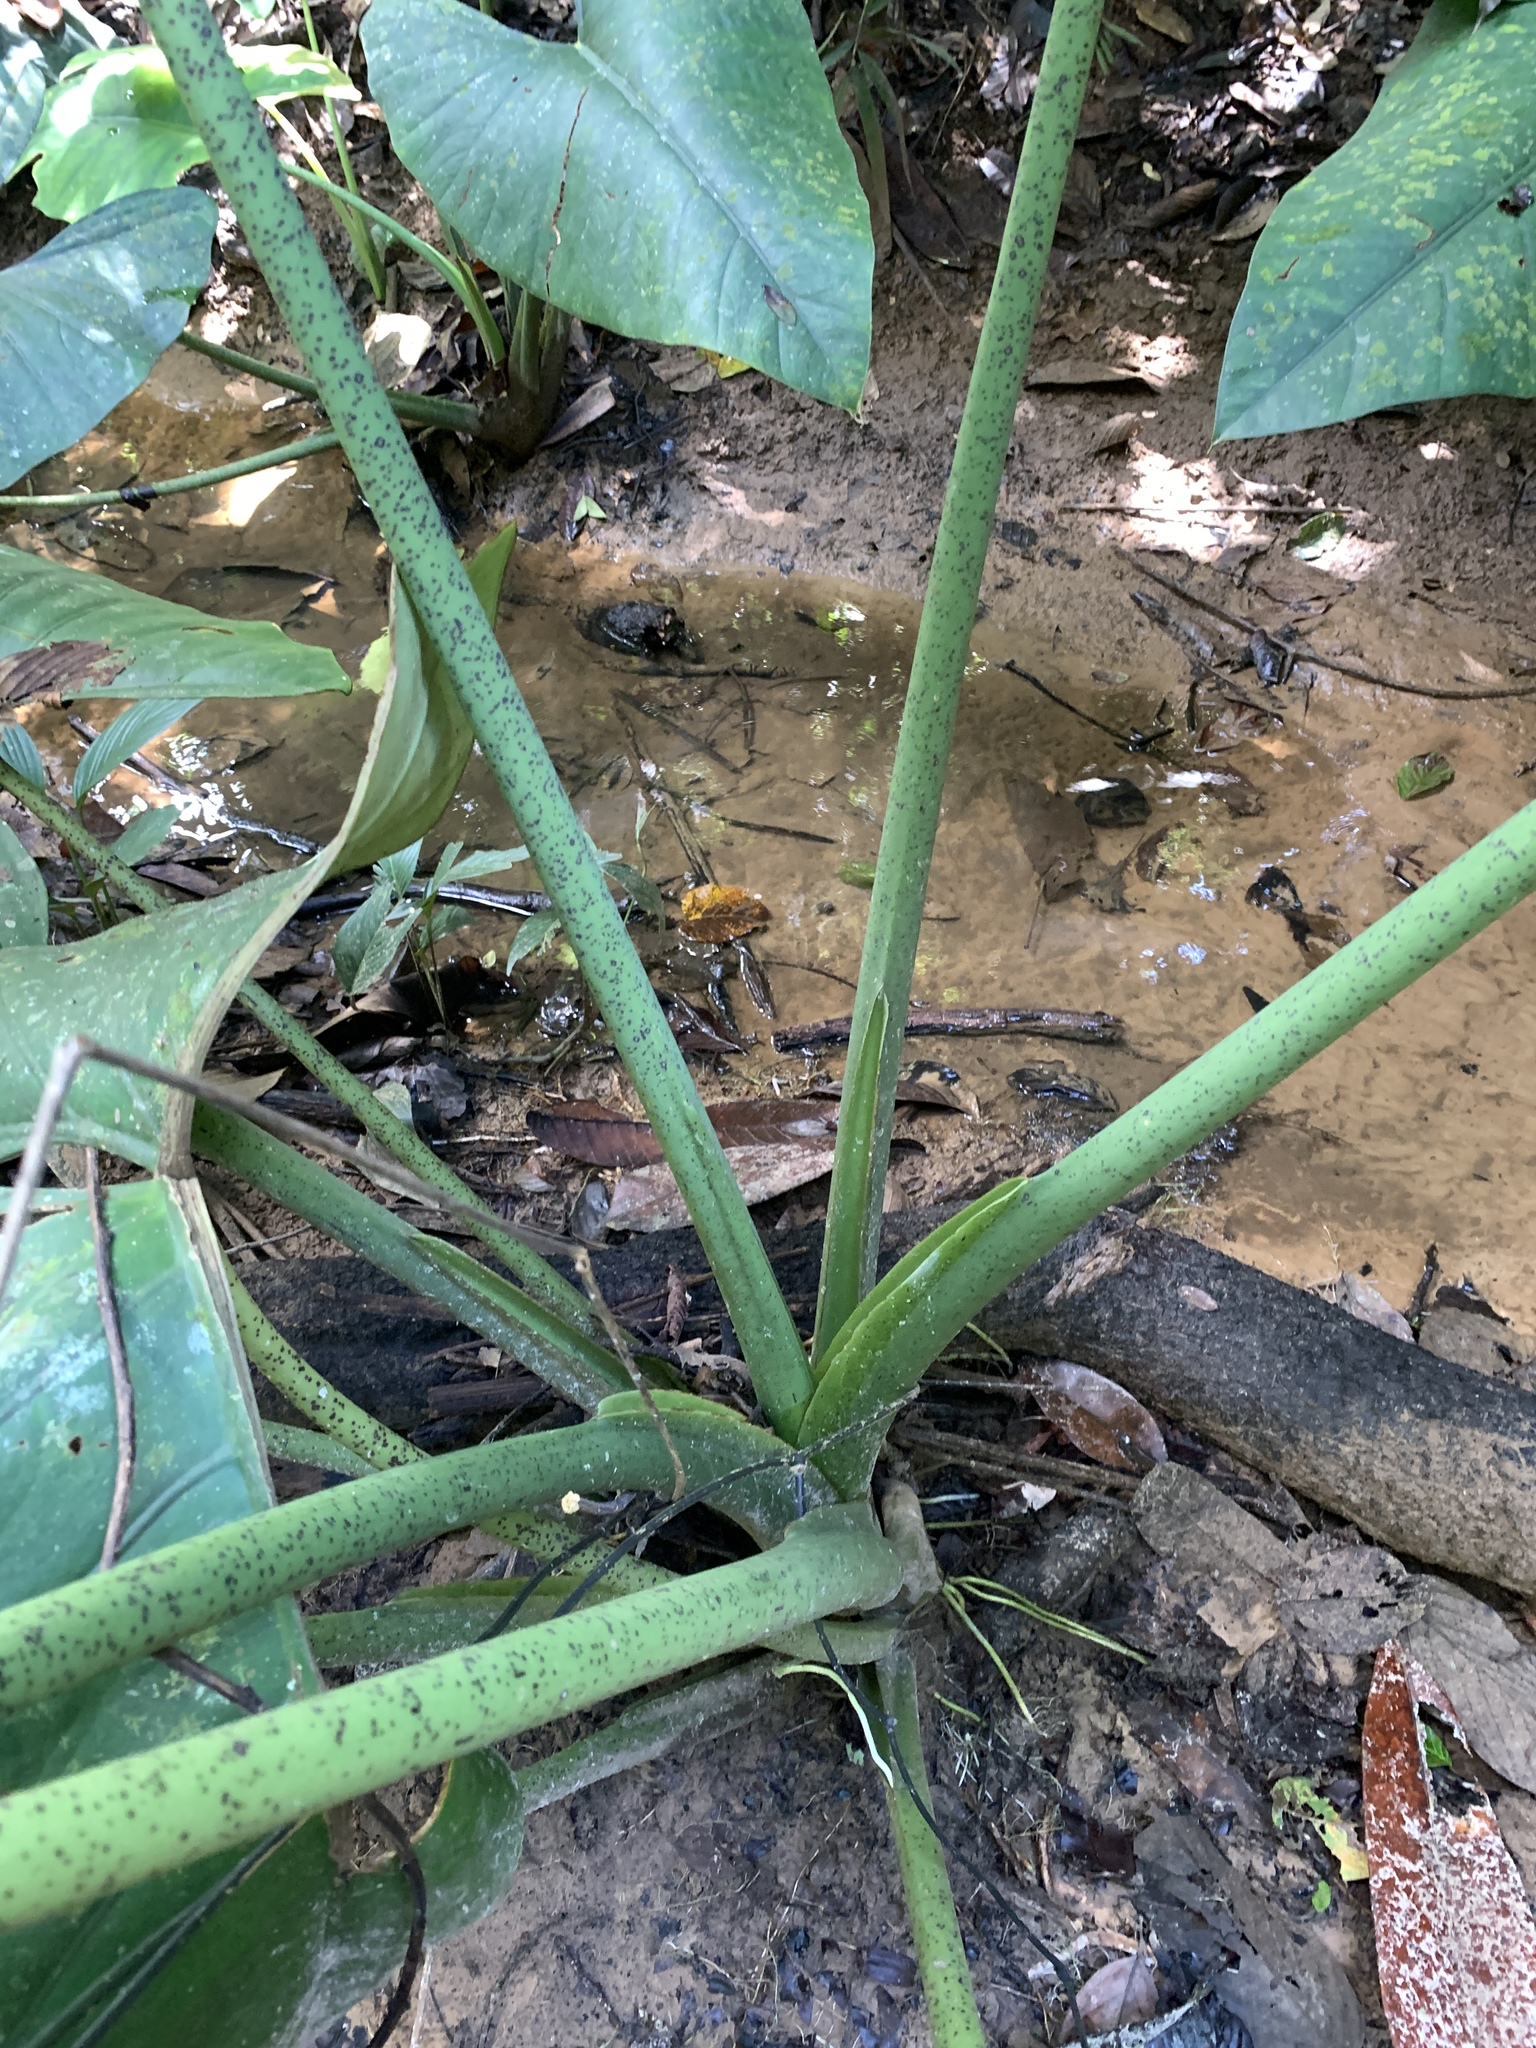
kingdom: Plantae
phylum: Tracheophyta
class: Liliopsida
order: Alismatales
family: Araceae
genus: Alocasia
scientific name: Alocasia scabriuscula
